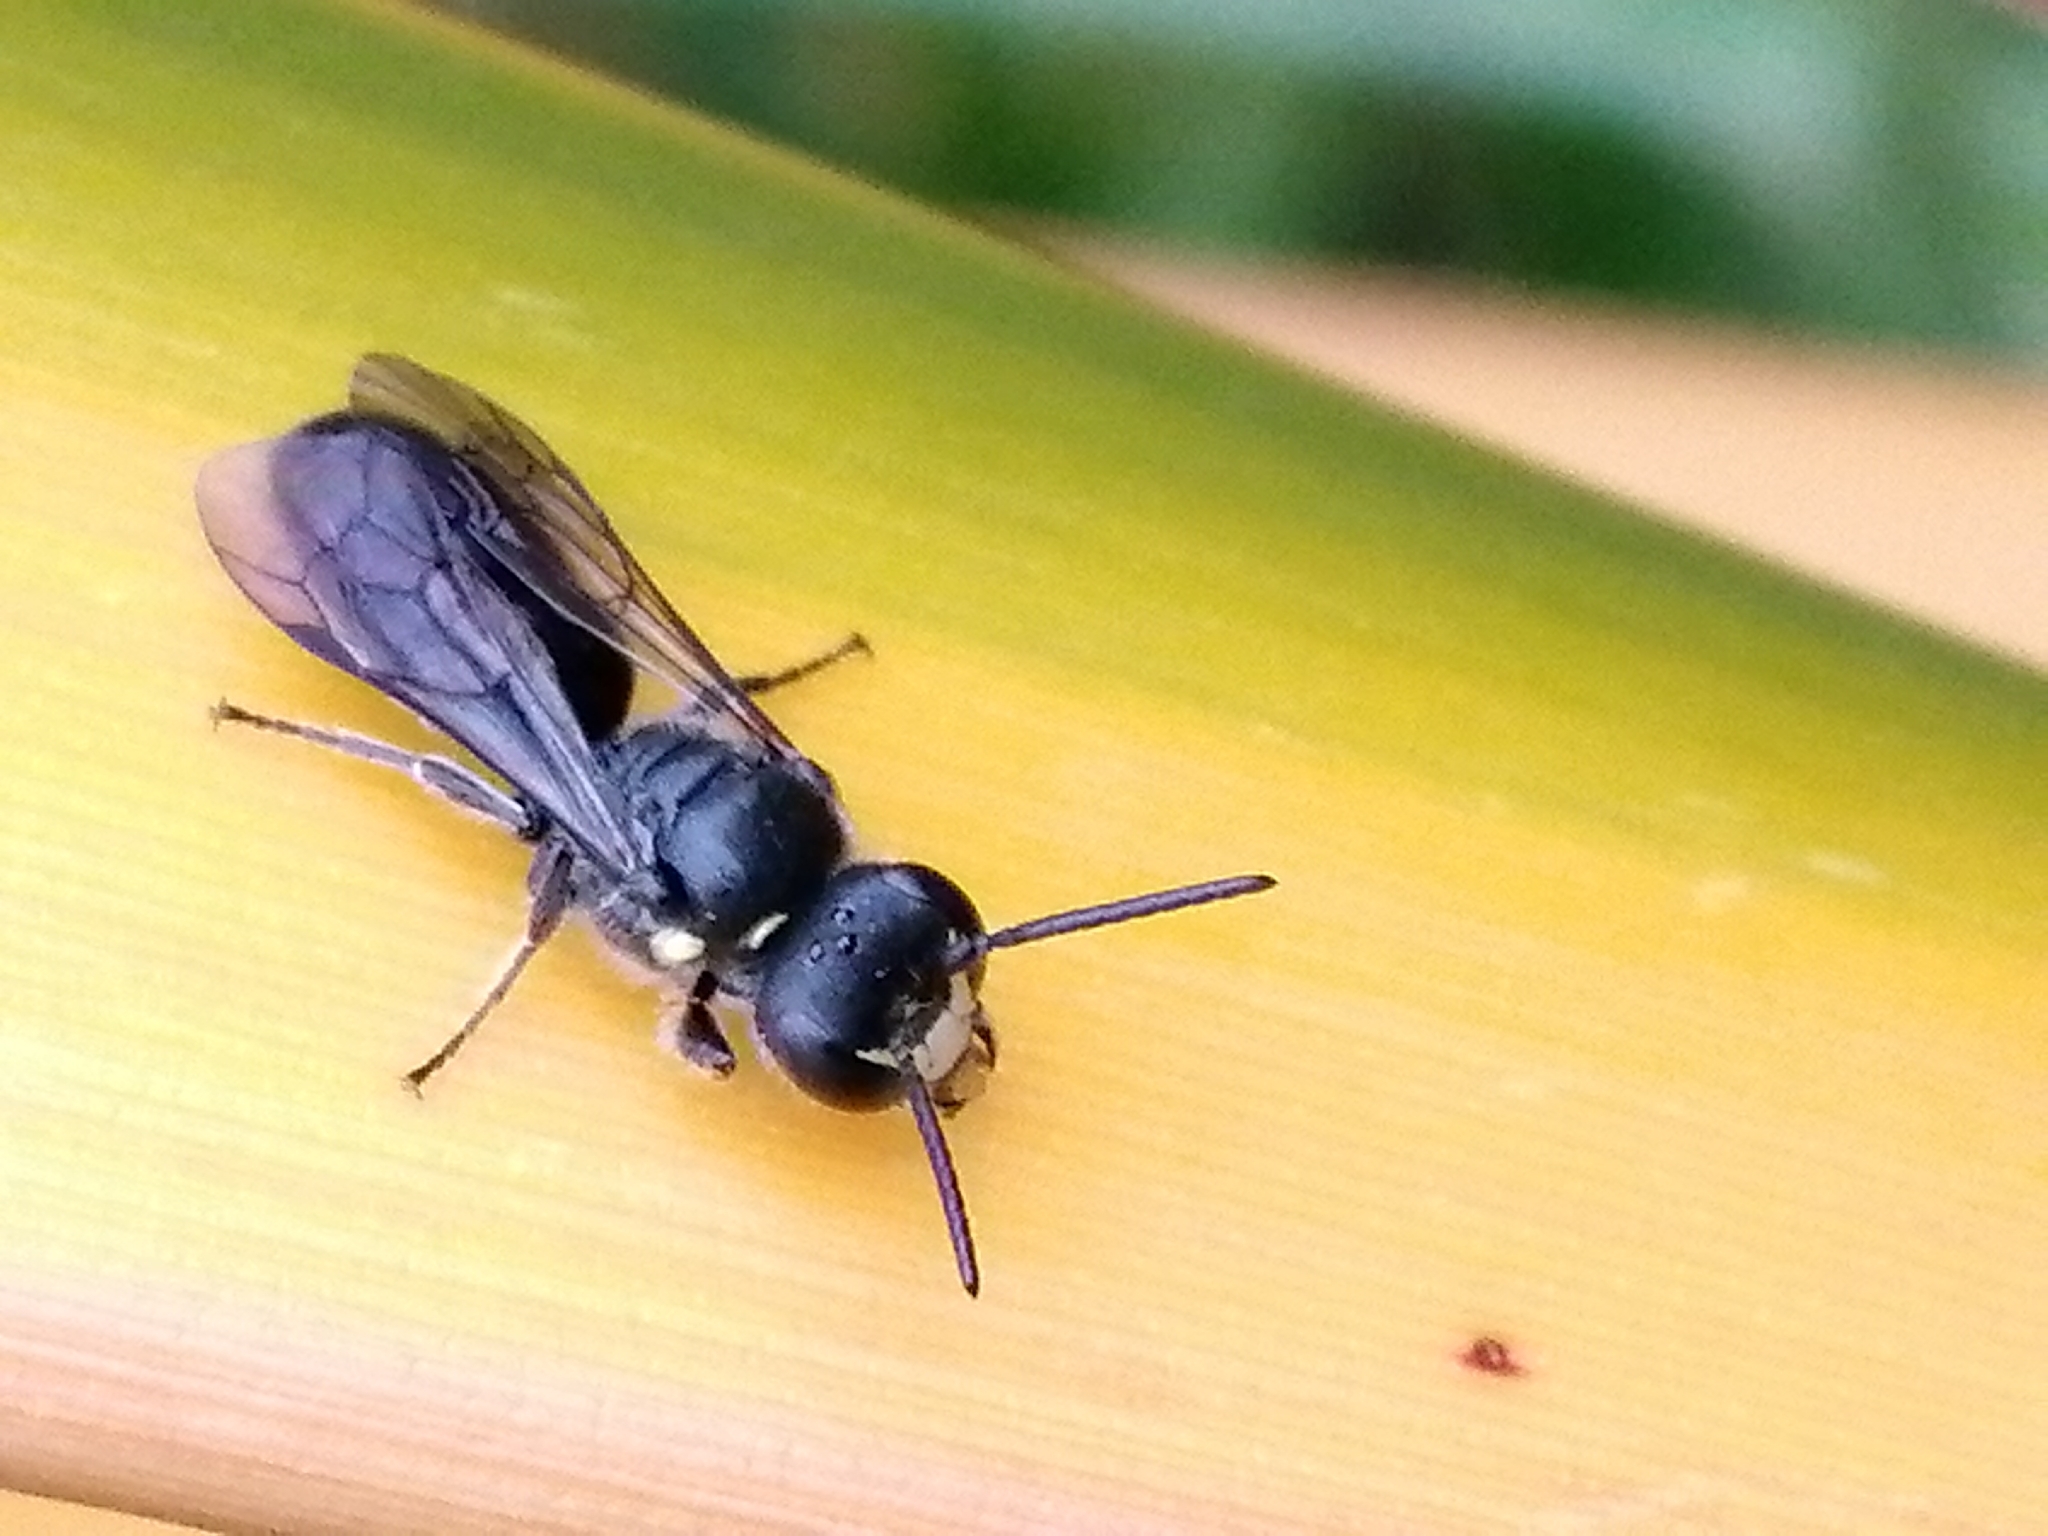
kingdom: Animalia
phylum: Arthropoda
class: Insecta
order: Hymenoptera
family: Colletidae
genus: Hylaeus
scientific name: Hylaeus relegatus
